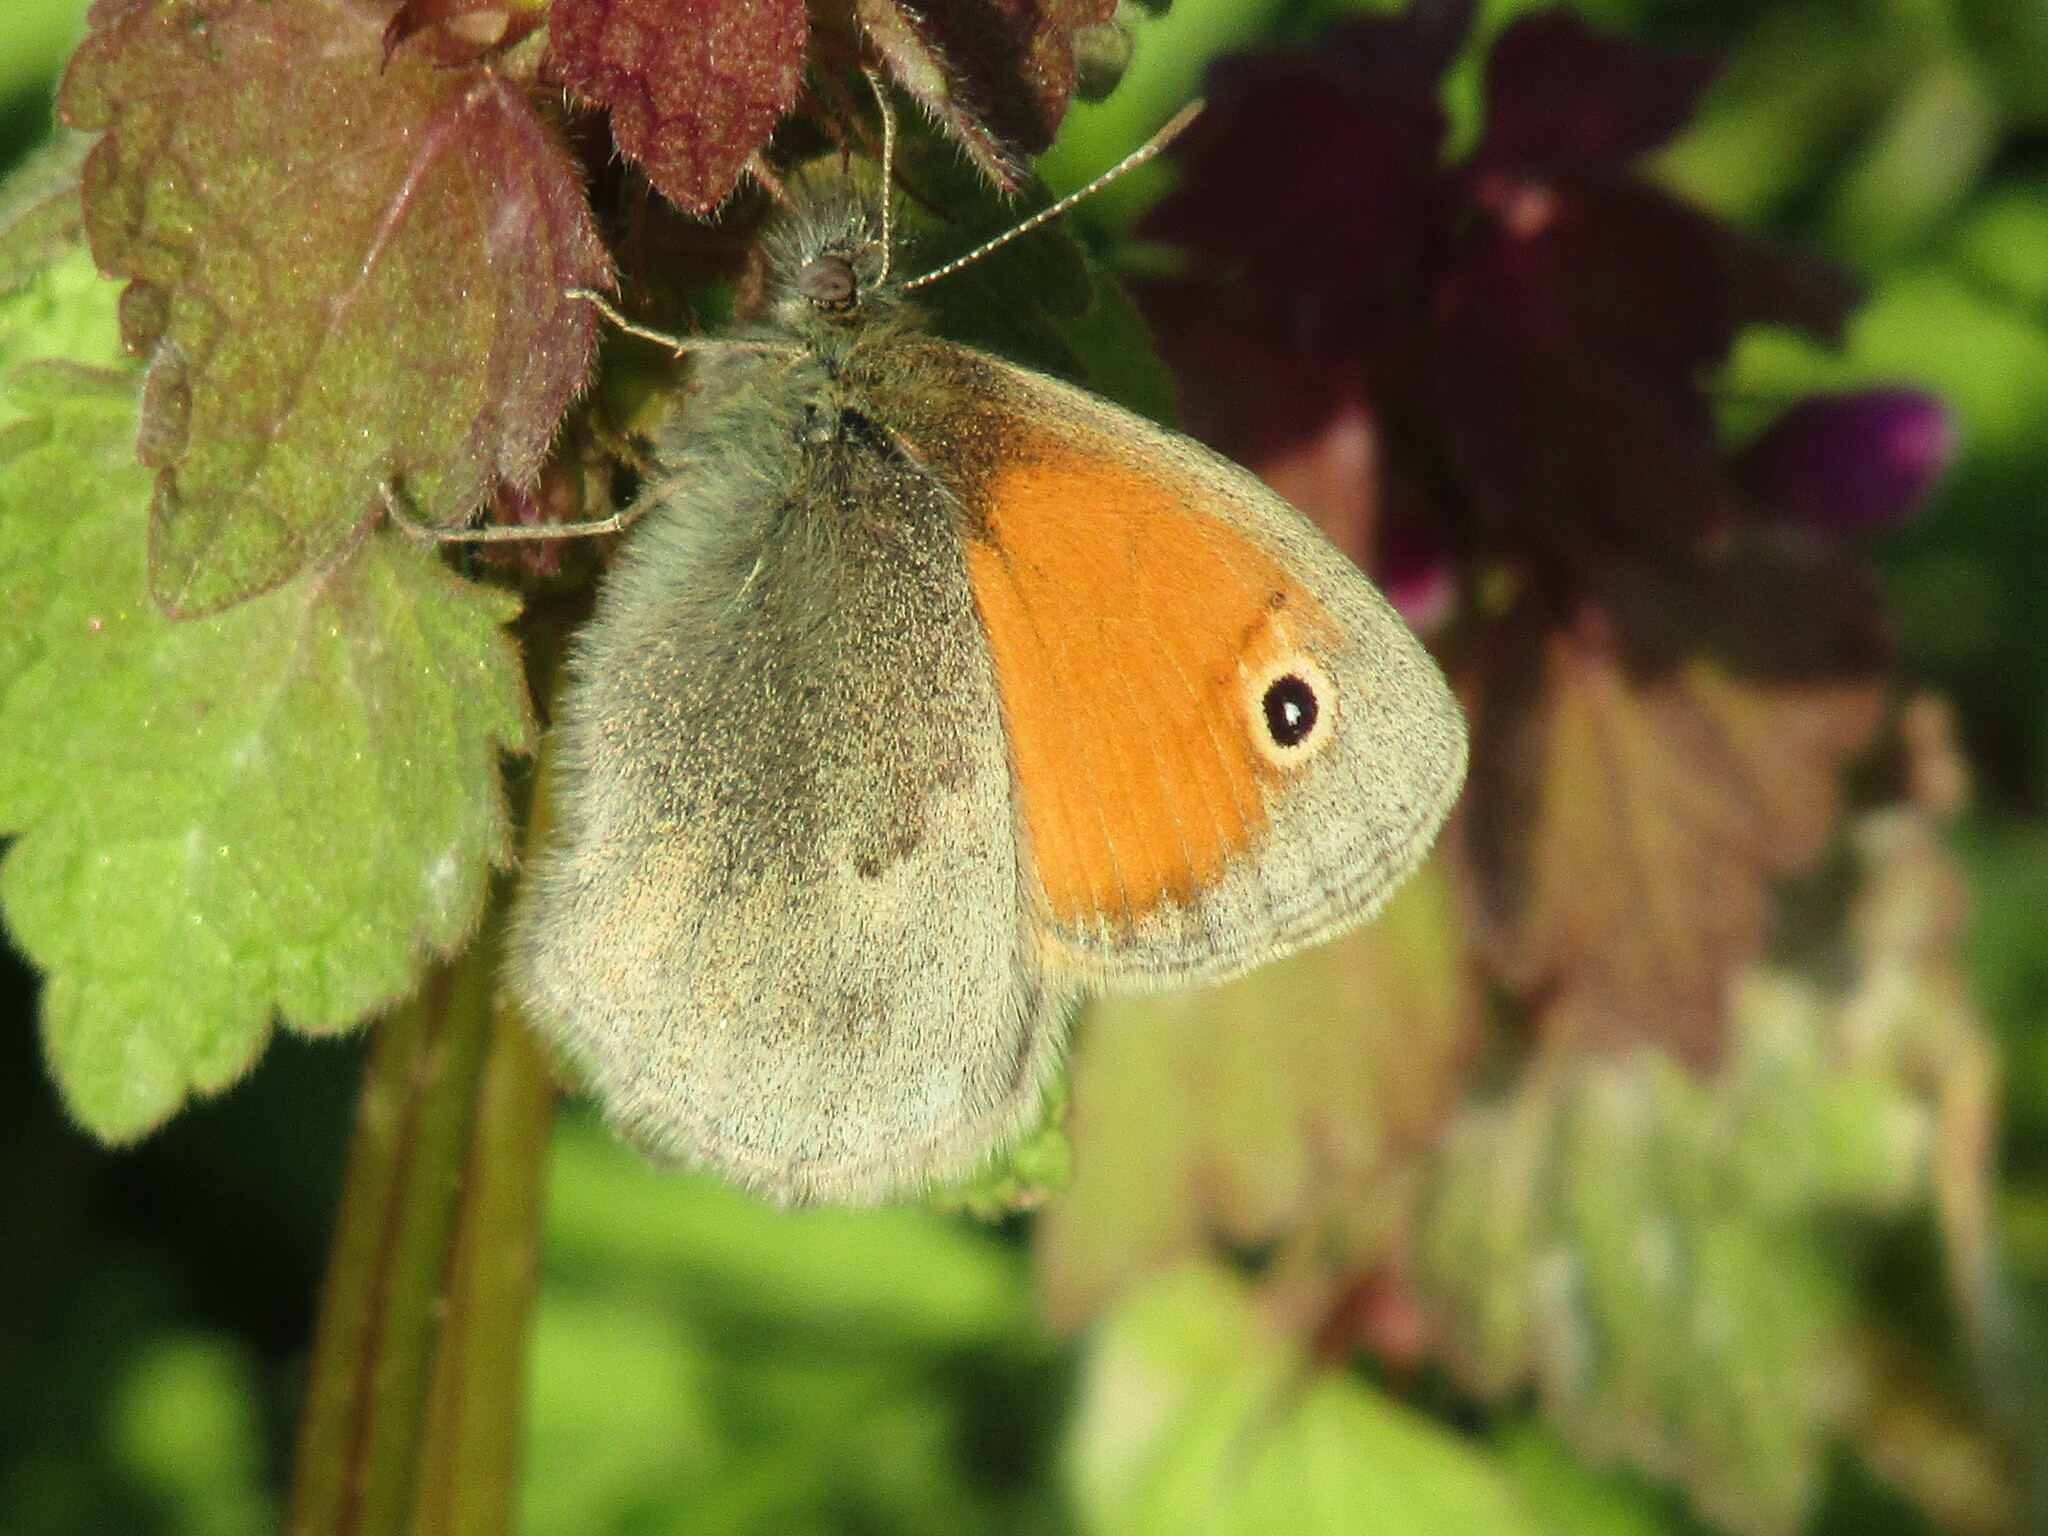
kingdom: Animalia
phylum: Arthropoda
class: Insecta
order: Lepidoptera
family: Nymphalidae
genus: Coenonympha
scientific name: Coenonympha pamphilus
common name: Small heath
